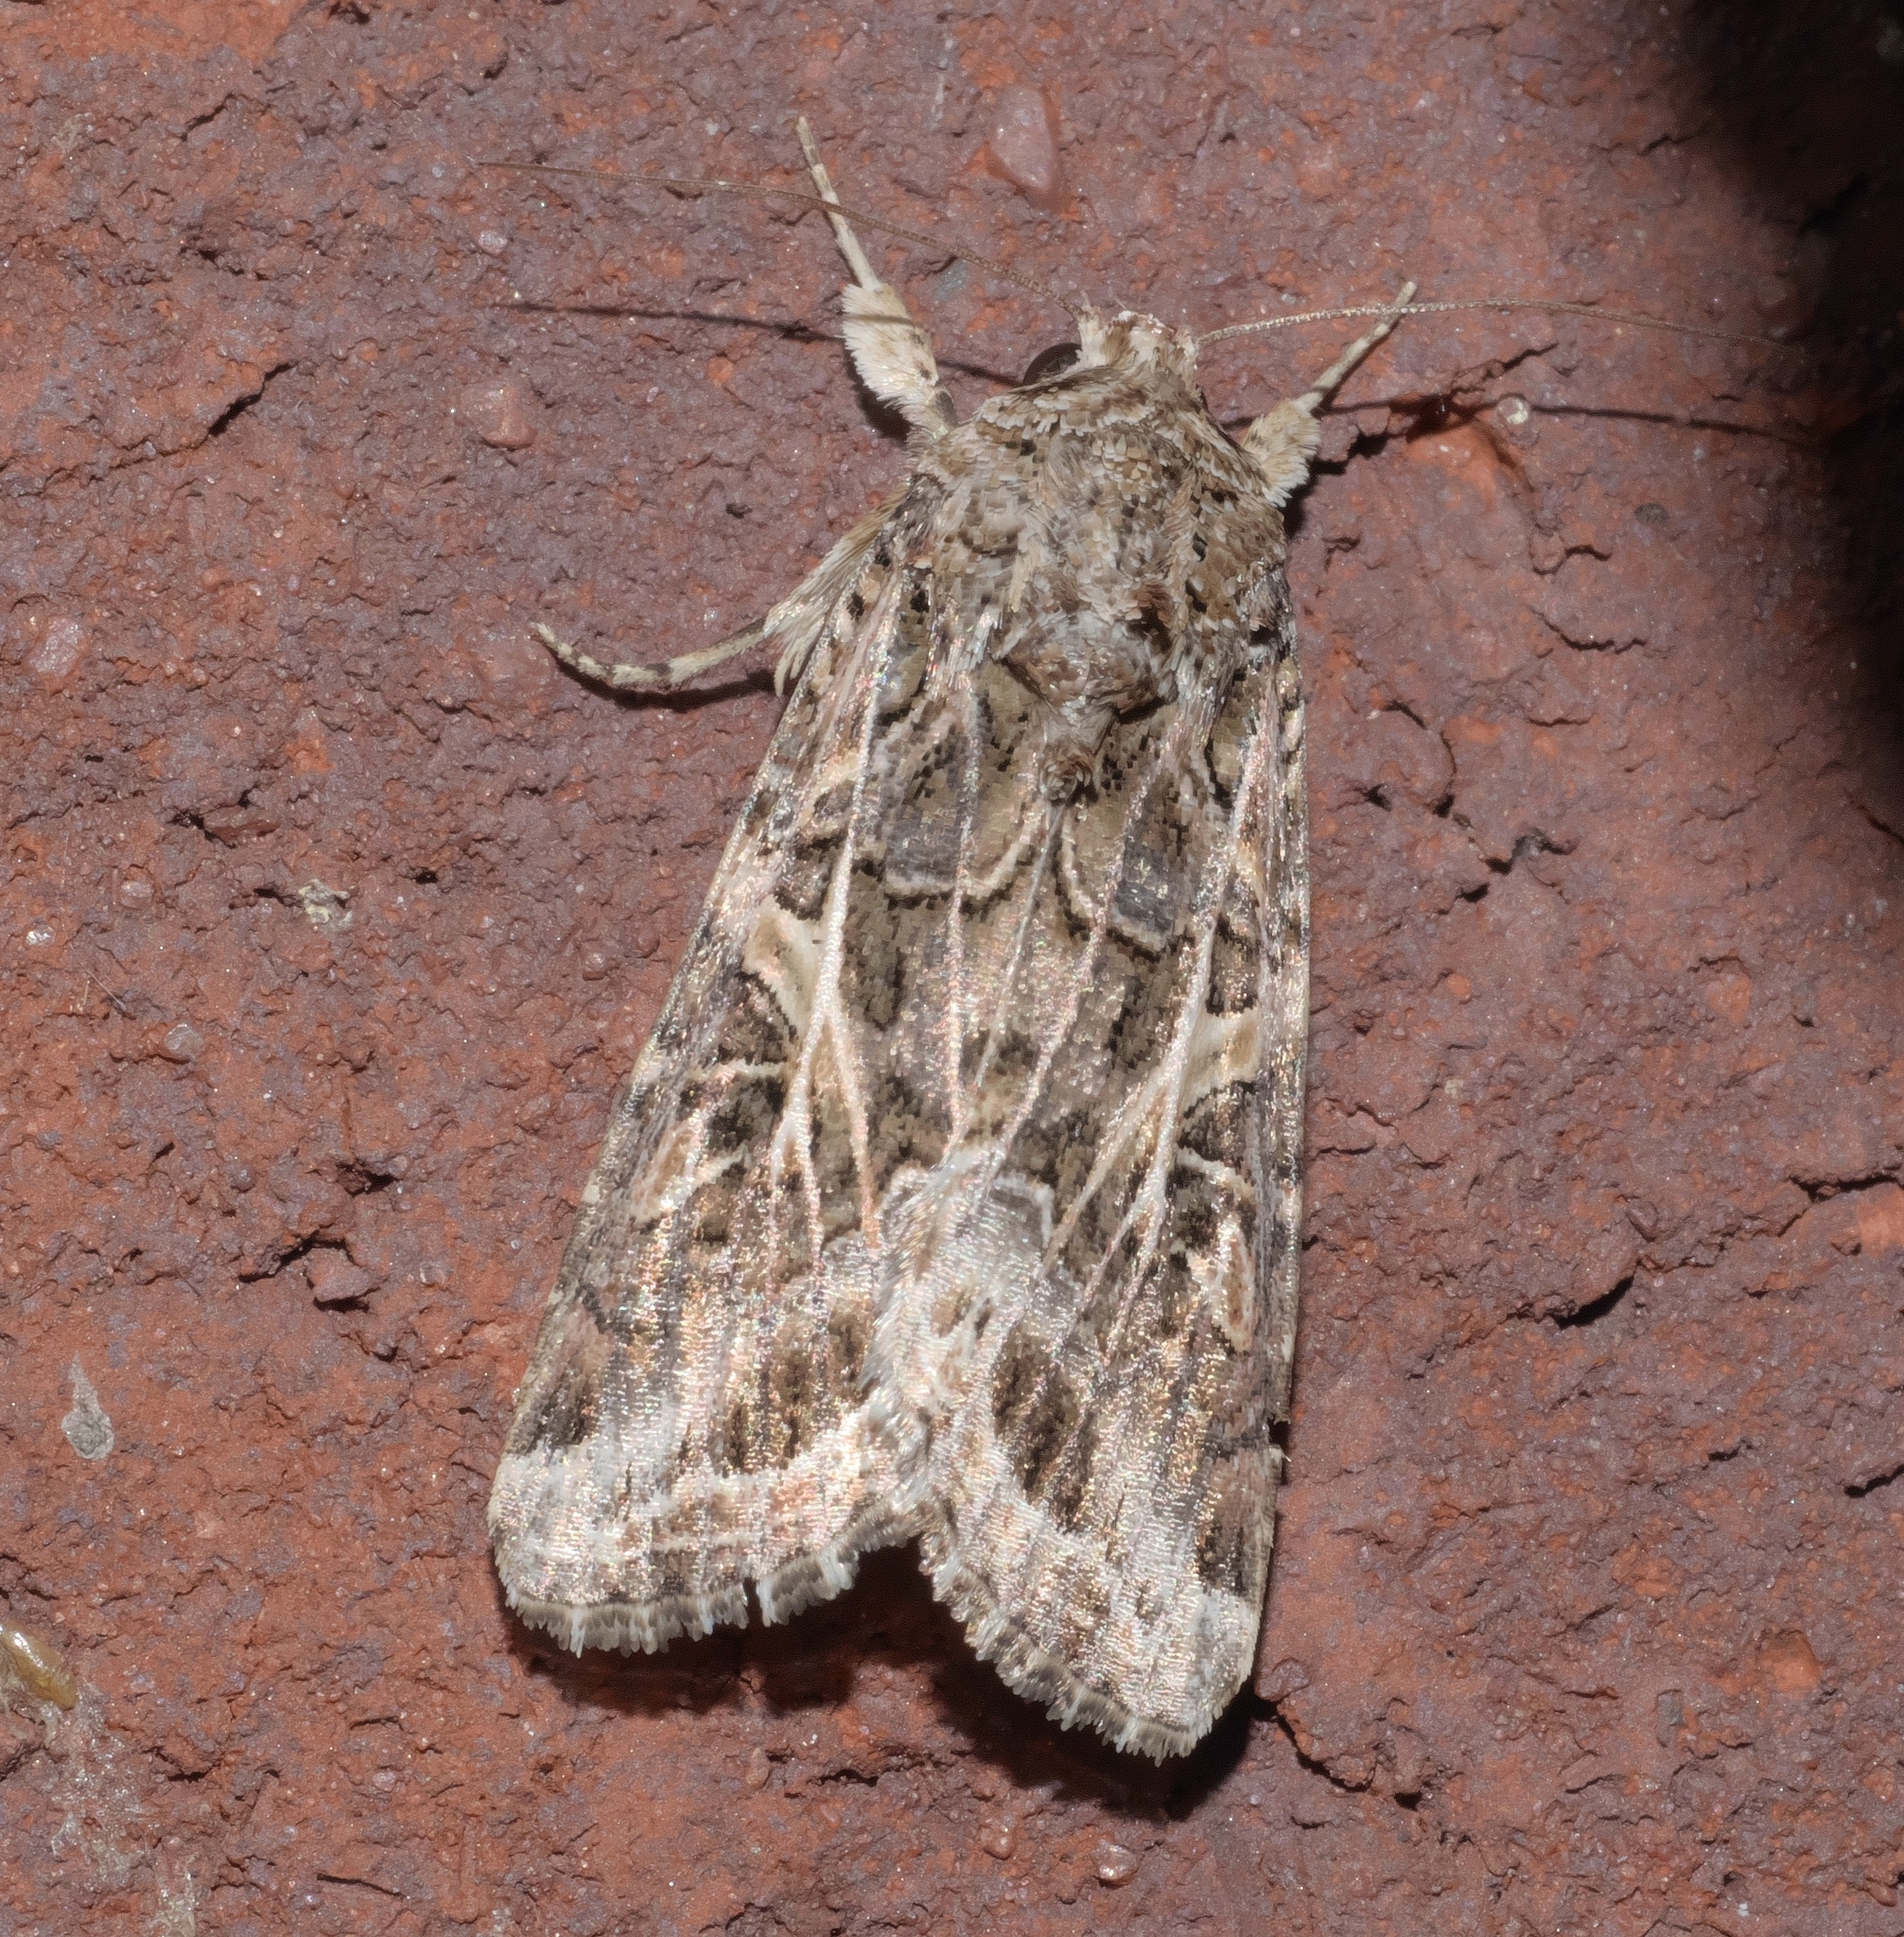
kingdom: Animalia
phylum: Arthropoda
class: Insecta
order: Lepidoptera
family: Noctuidae
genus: Spodoptera
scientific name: Spodoptera ornithogalli
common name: Yellow-striped armyworm
